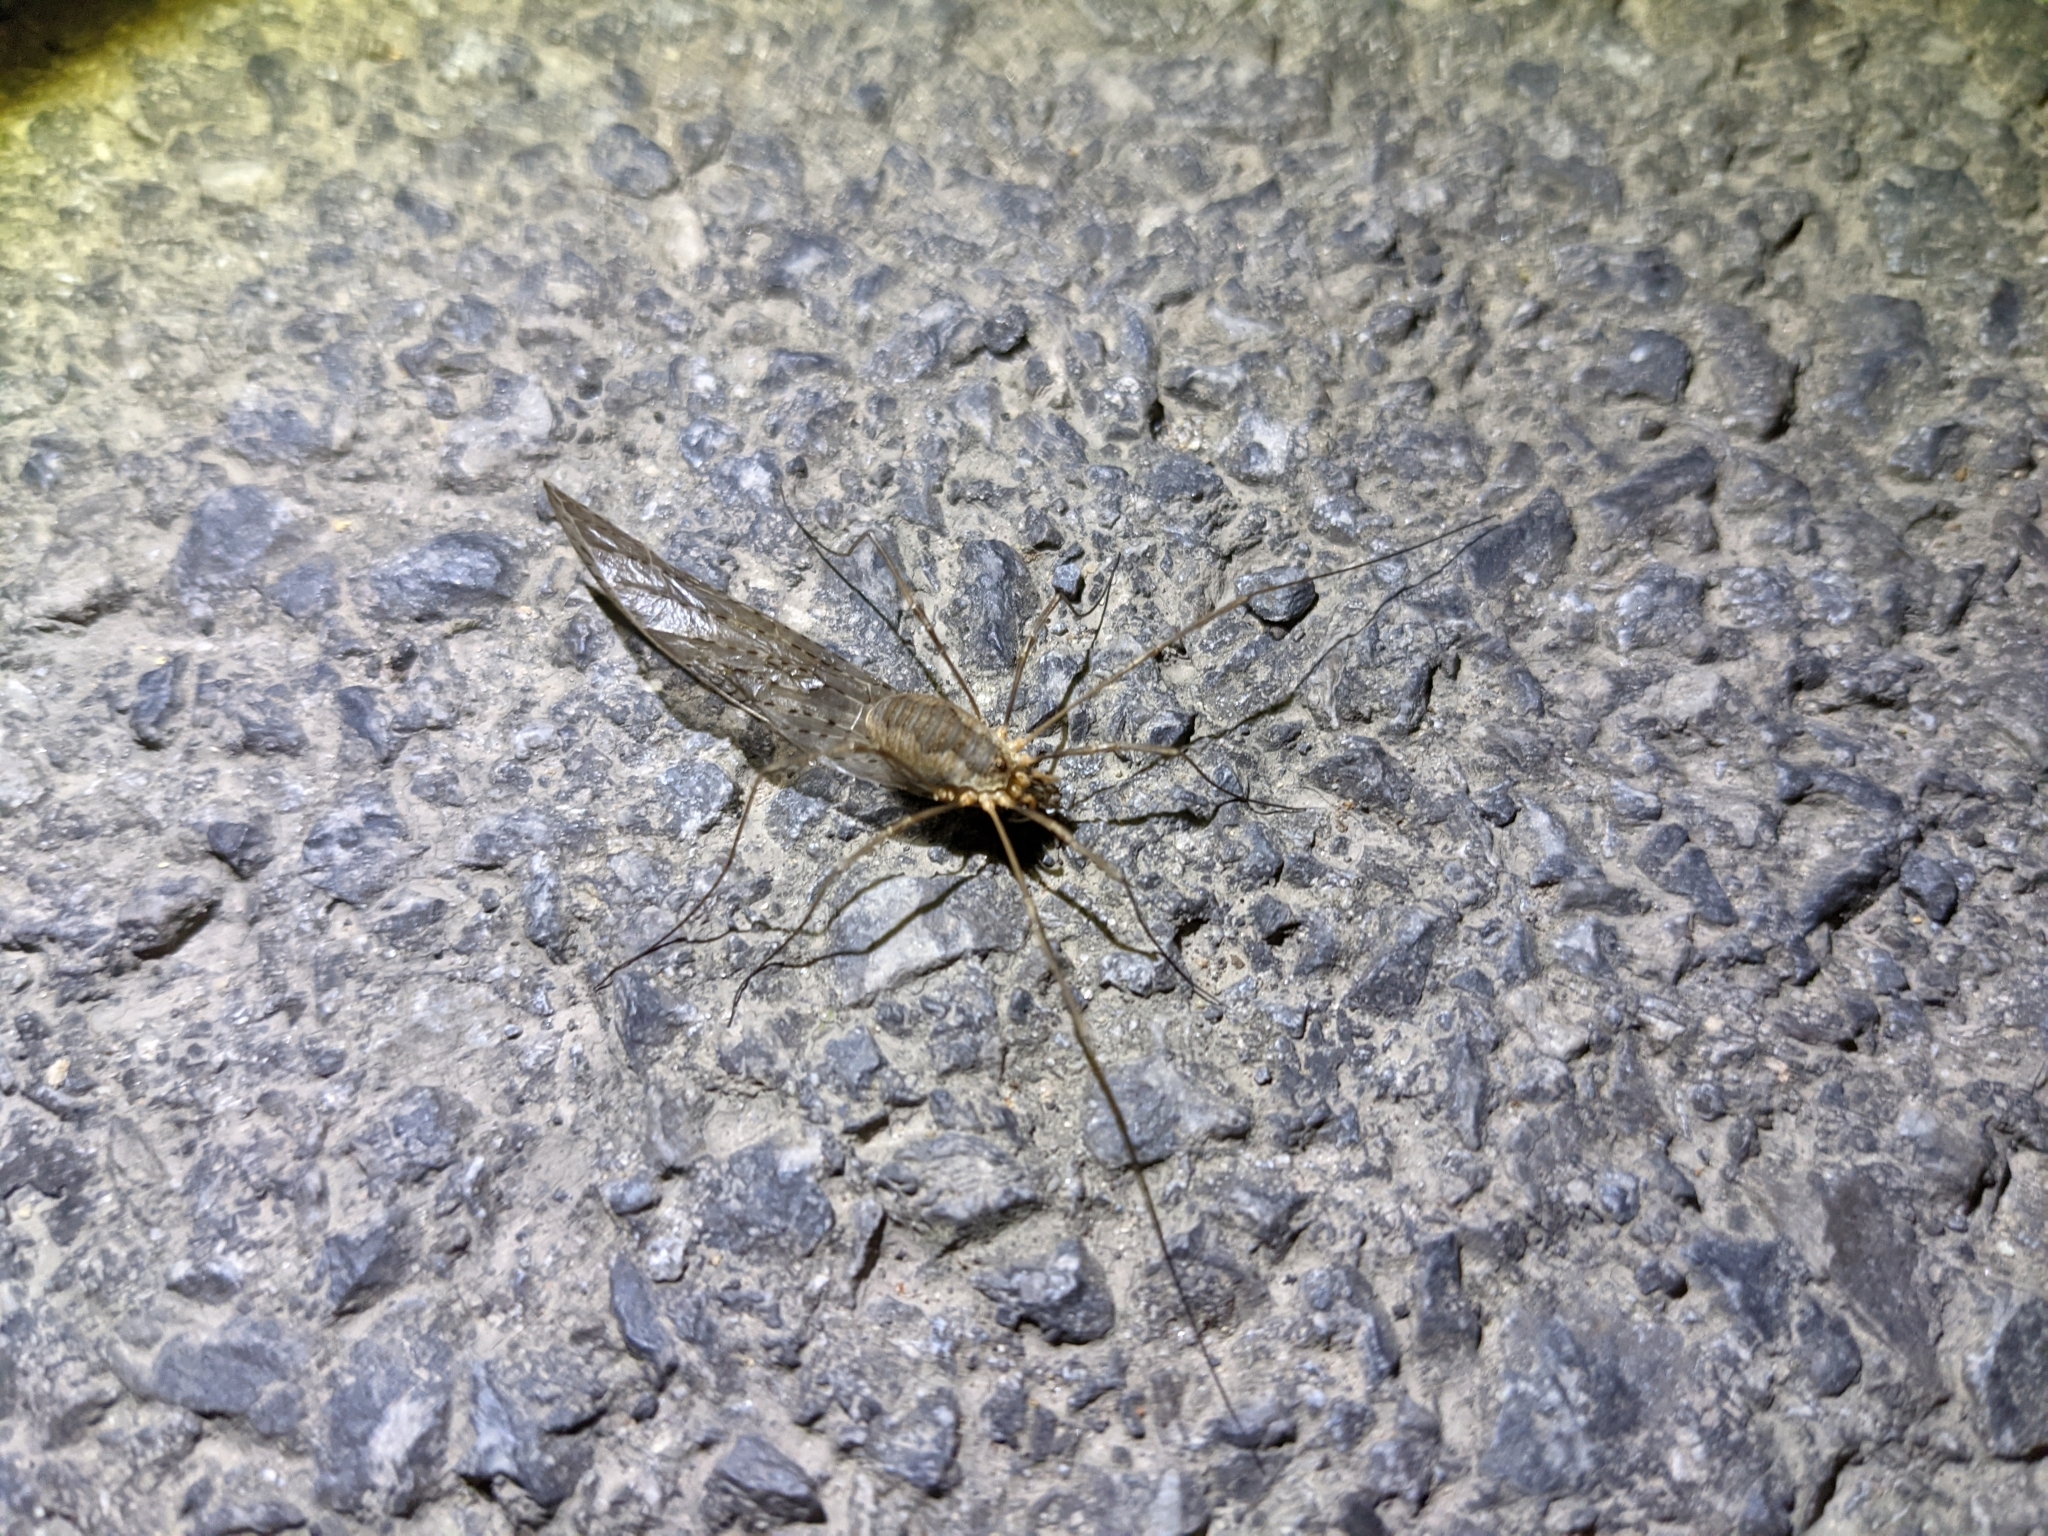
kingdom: Animalia
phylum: Arthropoda
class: Arachnida
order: Opiliones
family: Phalangiidae
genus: Phalangium
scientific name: Phalangium opilio
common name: Daddy longleg
